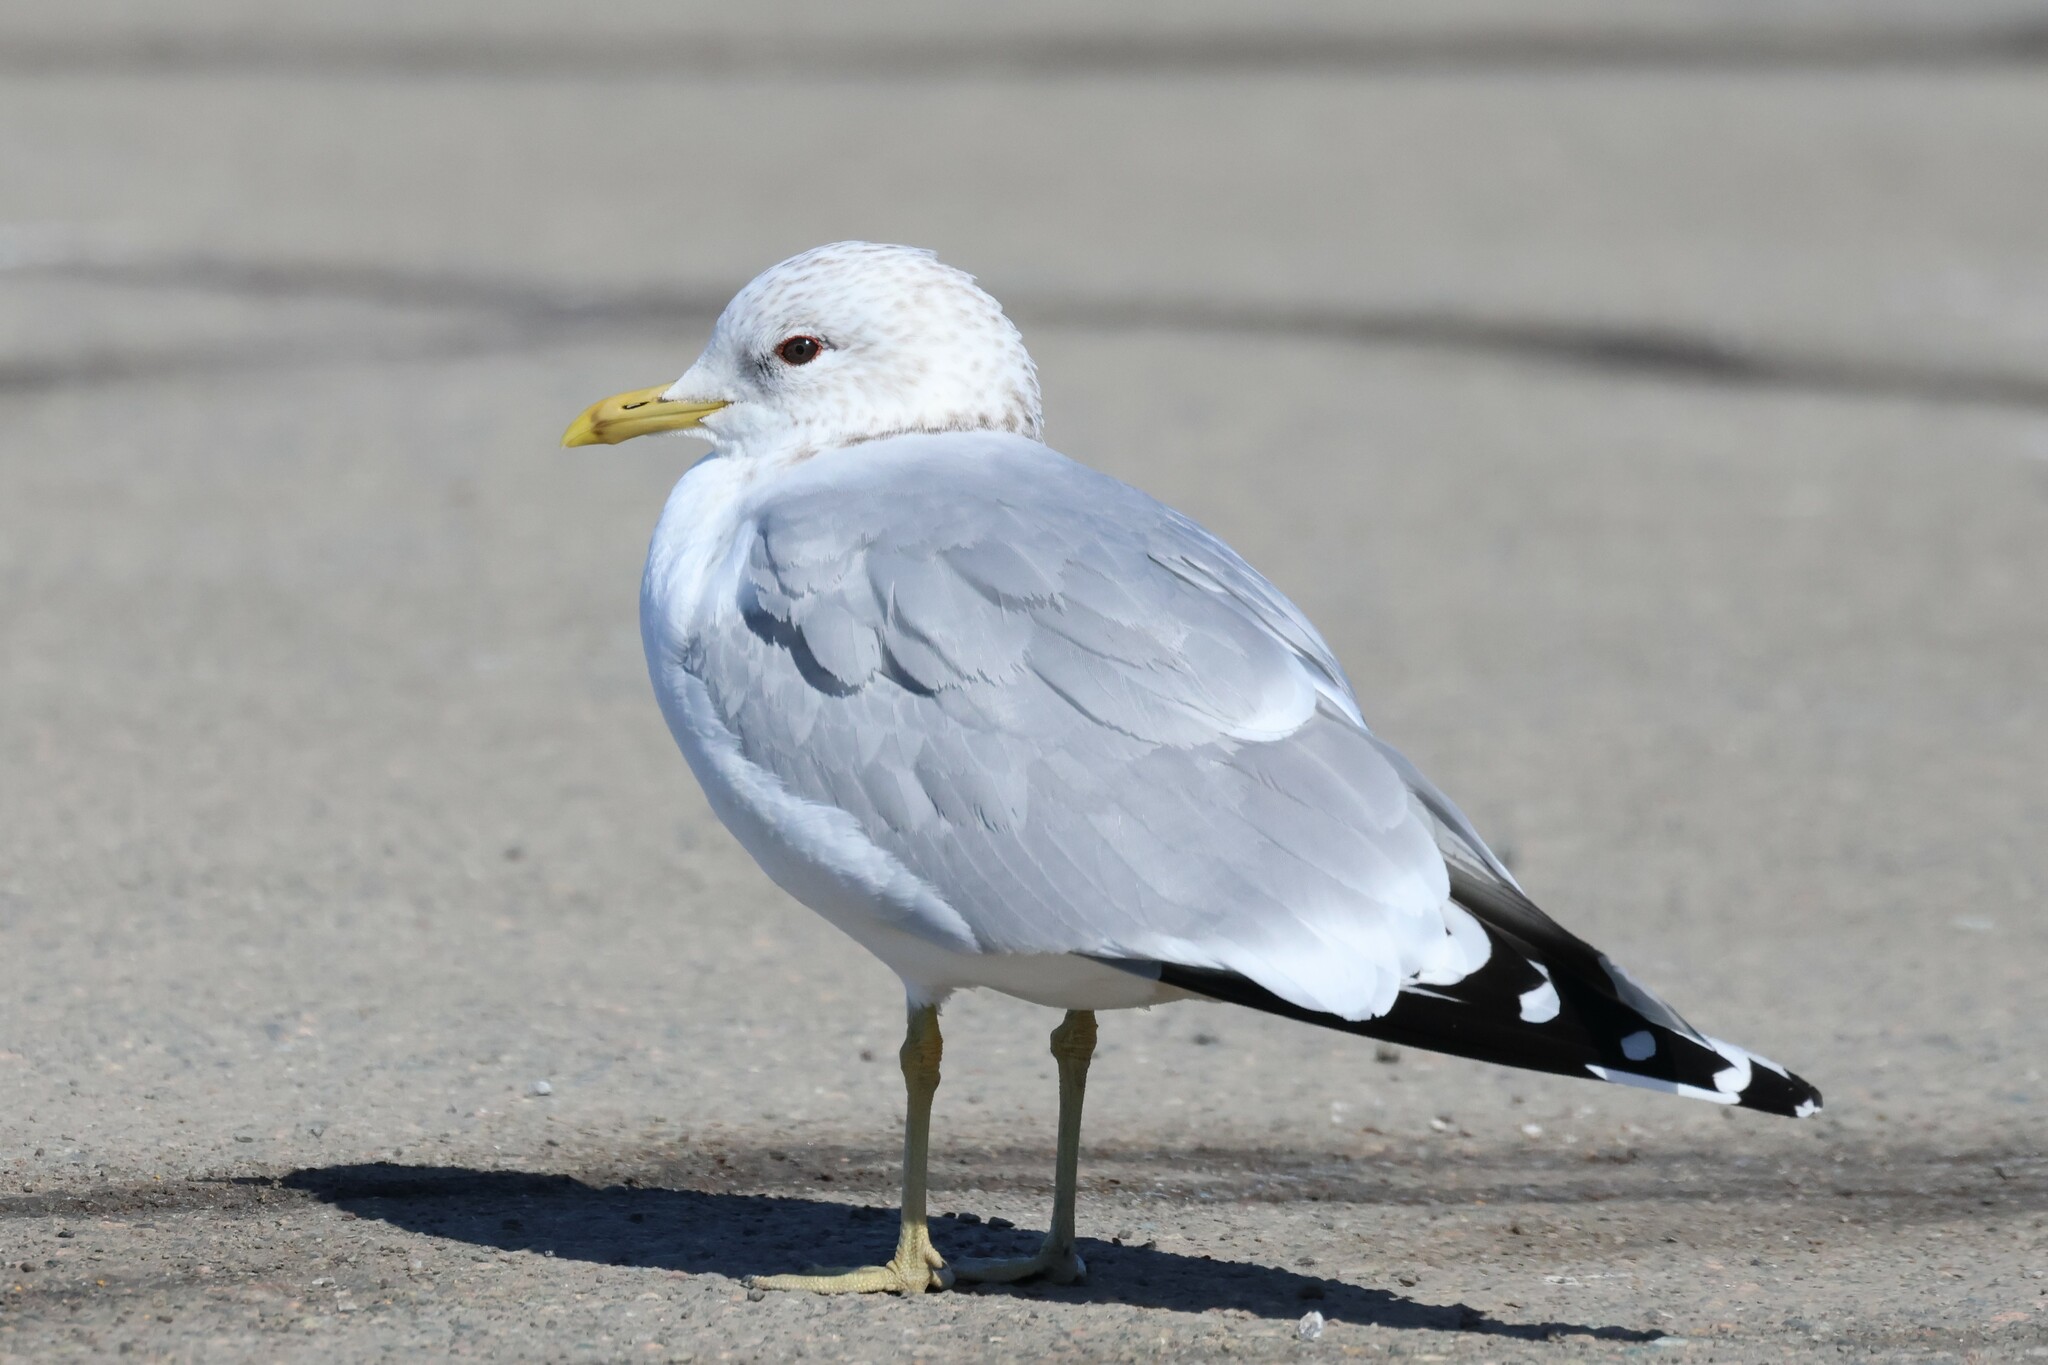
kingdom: Animalia
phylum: Chordata
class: Aves
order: Charadriiformes
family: Laridae
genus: Larus
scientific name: Larus canus
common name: Mew gull
